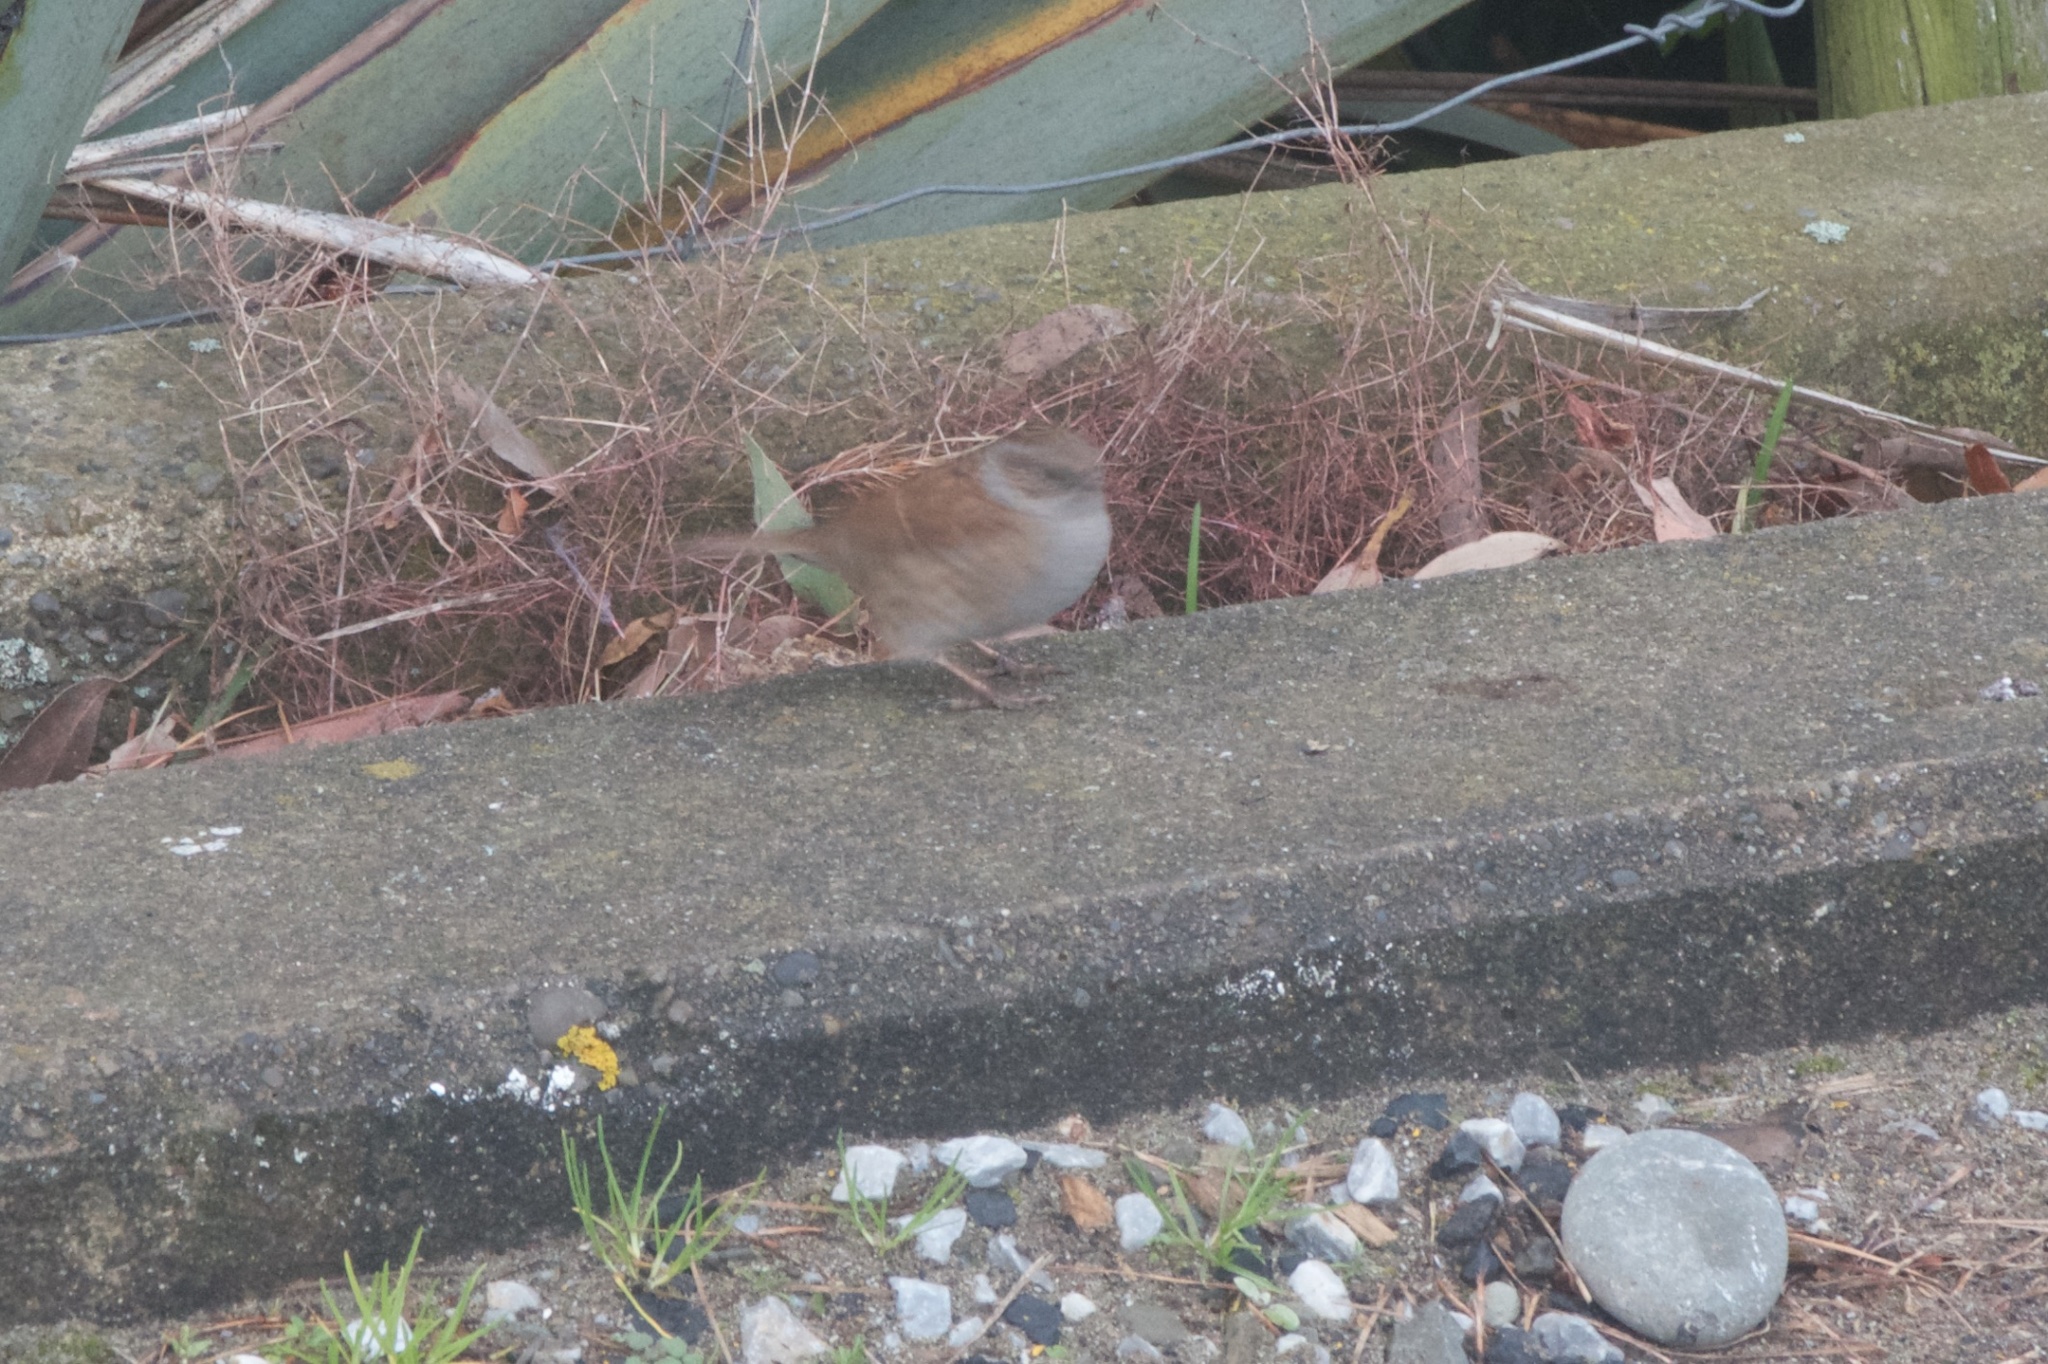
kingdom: Animalia
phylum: Chordata
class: Aves
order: Passeriformes
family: Prunellidae
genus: Prunella
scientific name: Prunella modularis
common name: Dunnock
